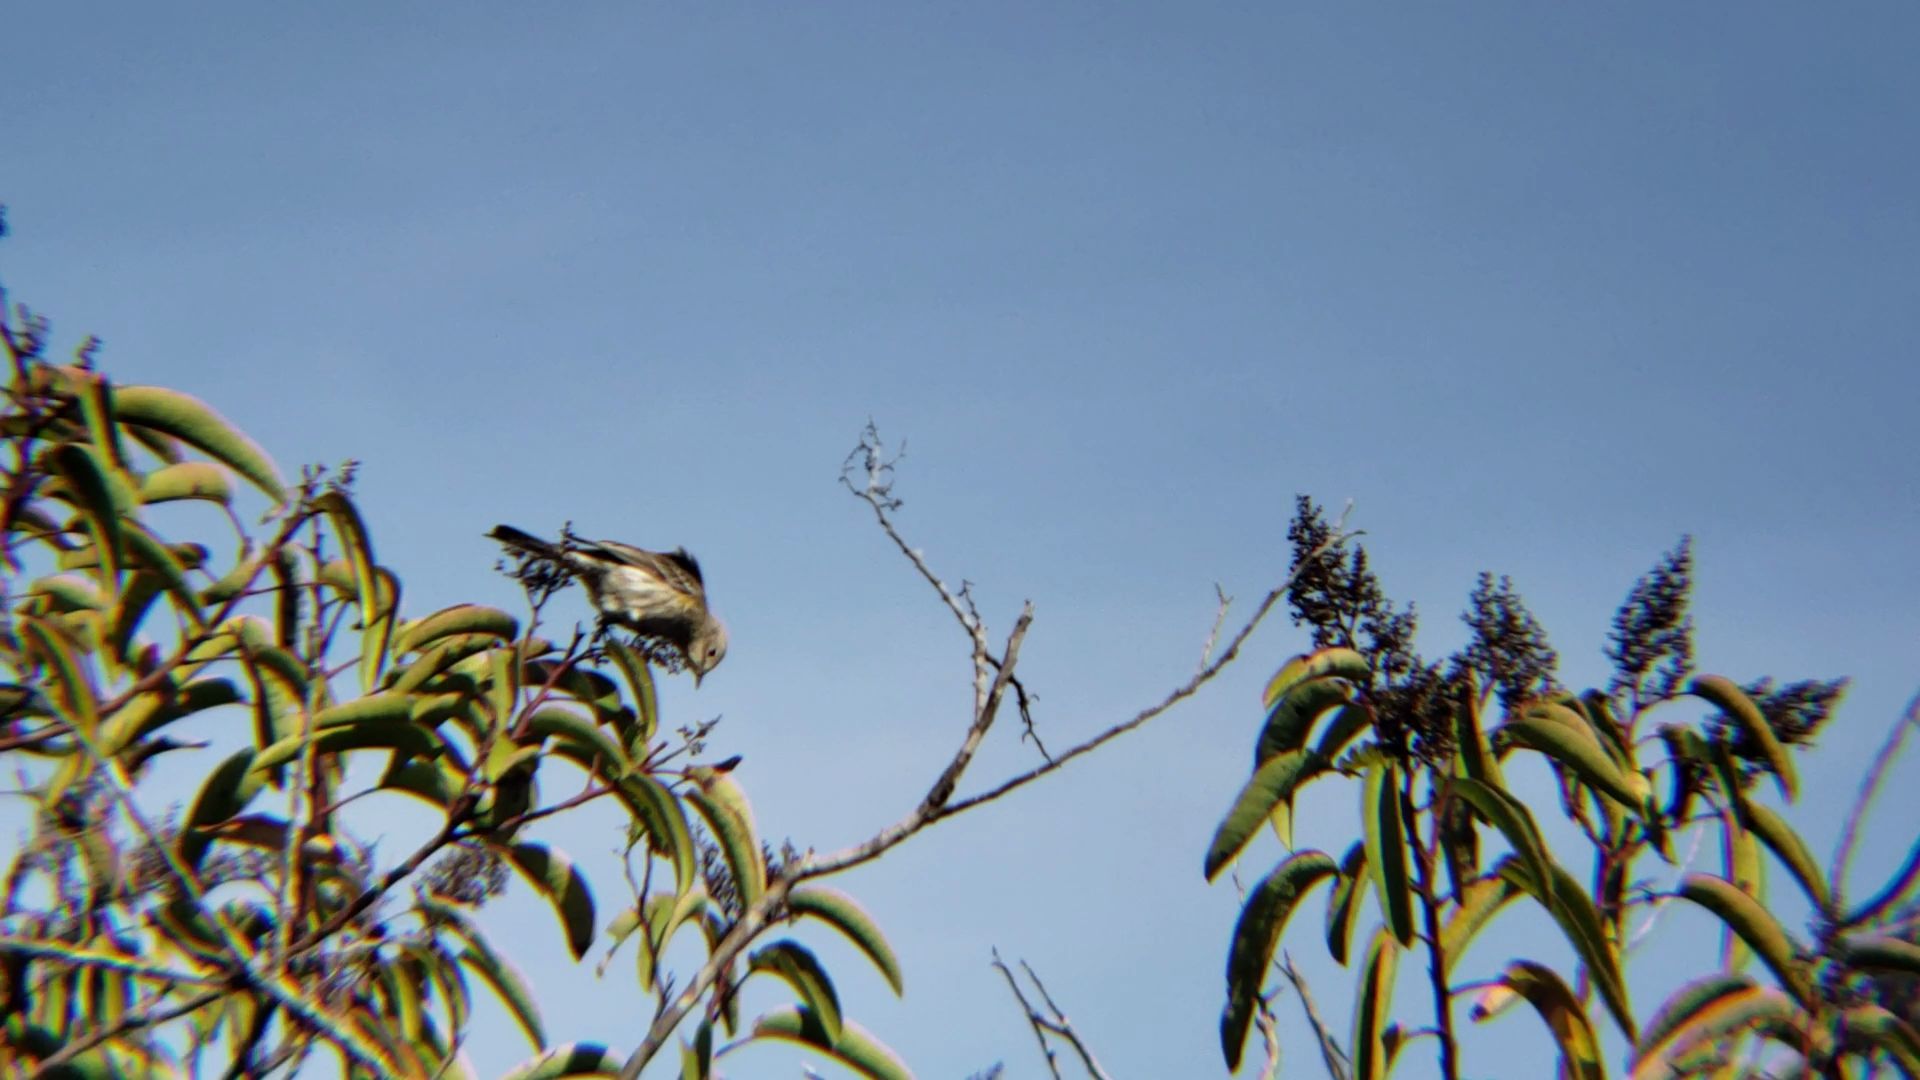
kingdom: Animalia
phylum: Chordata
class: Aves
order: Passeriformes
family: Parulidae
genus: Setophaga
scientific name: Setophaga coronata
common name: Myrtle warbler
